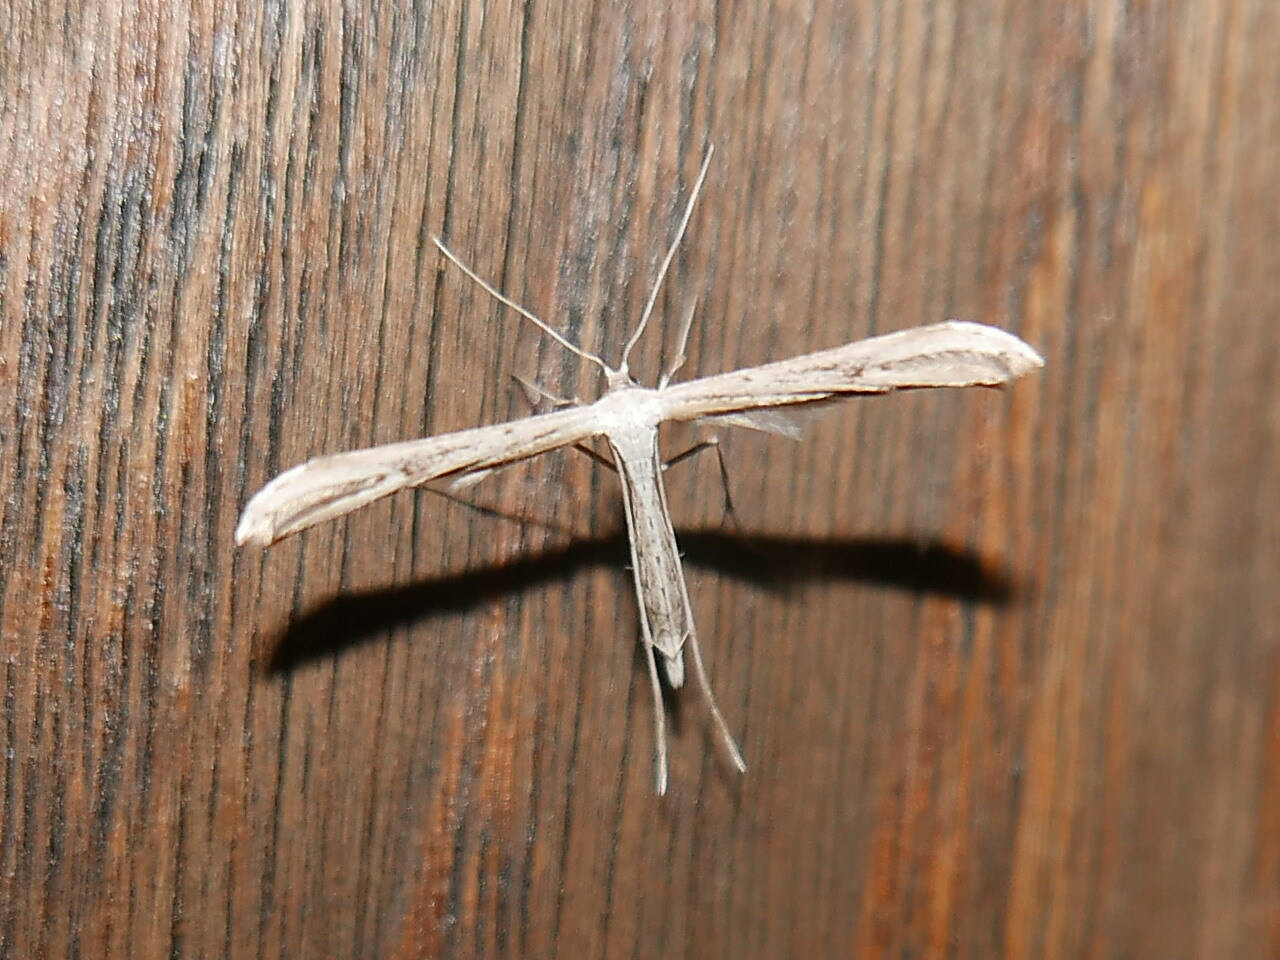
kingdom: Animalia
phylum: Arthropoda
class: Insecta
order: Lepidoptera
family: Pterophoridae
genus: Emmelina
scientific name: Emmelina monodactyla
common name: Common plume
